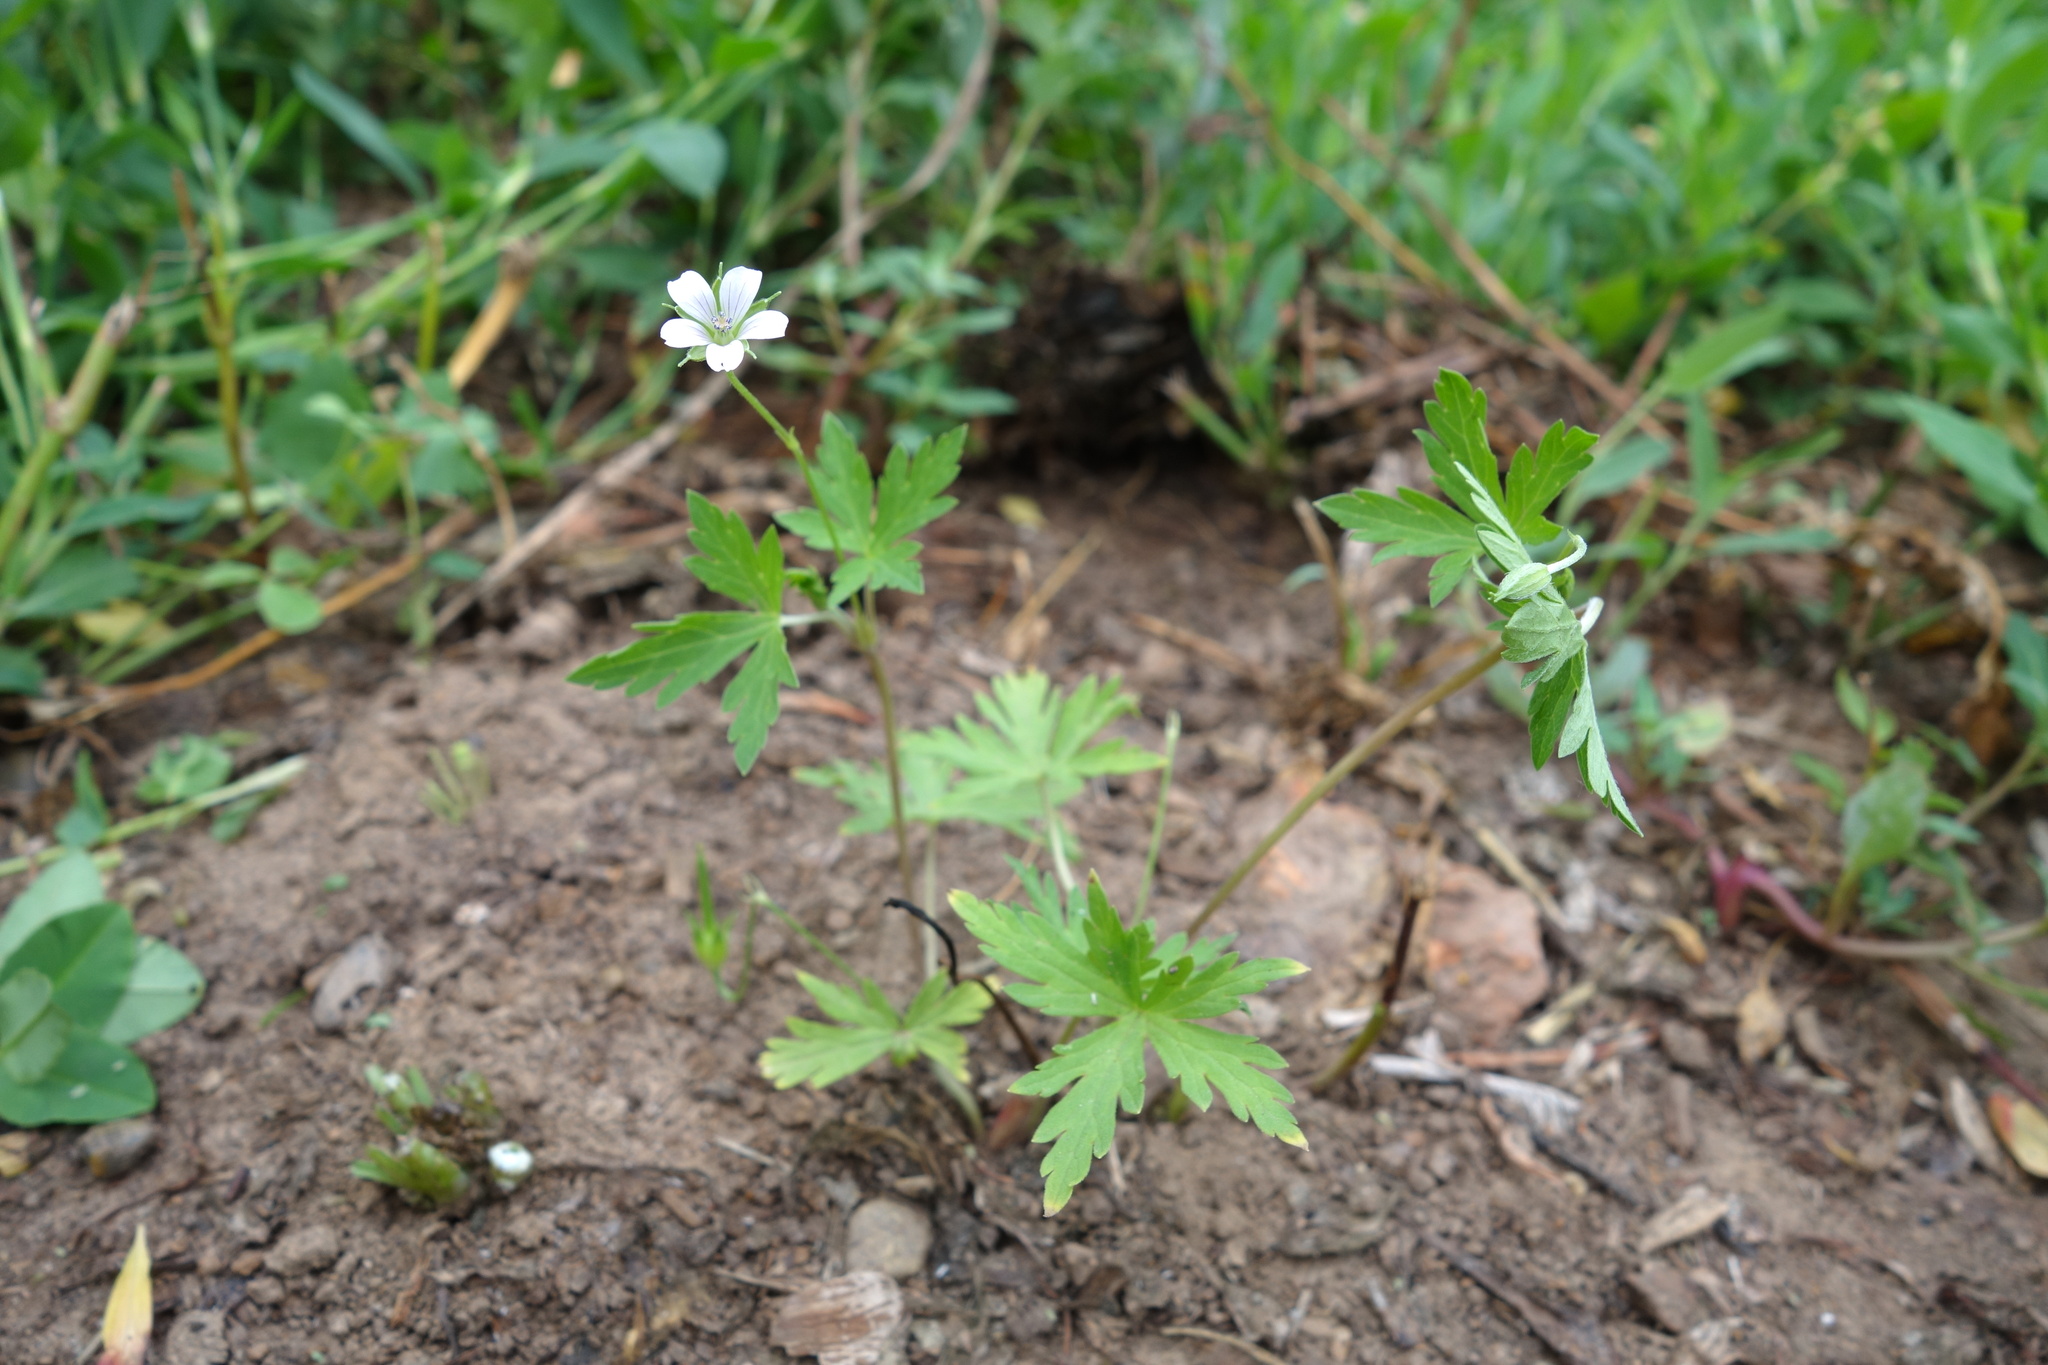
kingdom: Plantae
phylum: Tracheophyta
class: Magnoliopsida
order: Geraniales
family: Geraniaceae
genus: Geranium
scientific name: Geranium sibiricum
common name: Siberian crane's-bill
